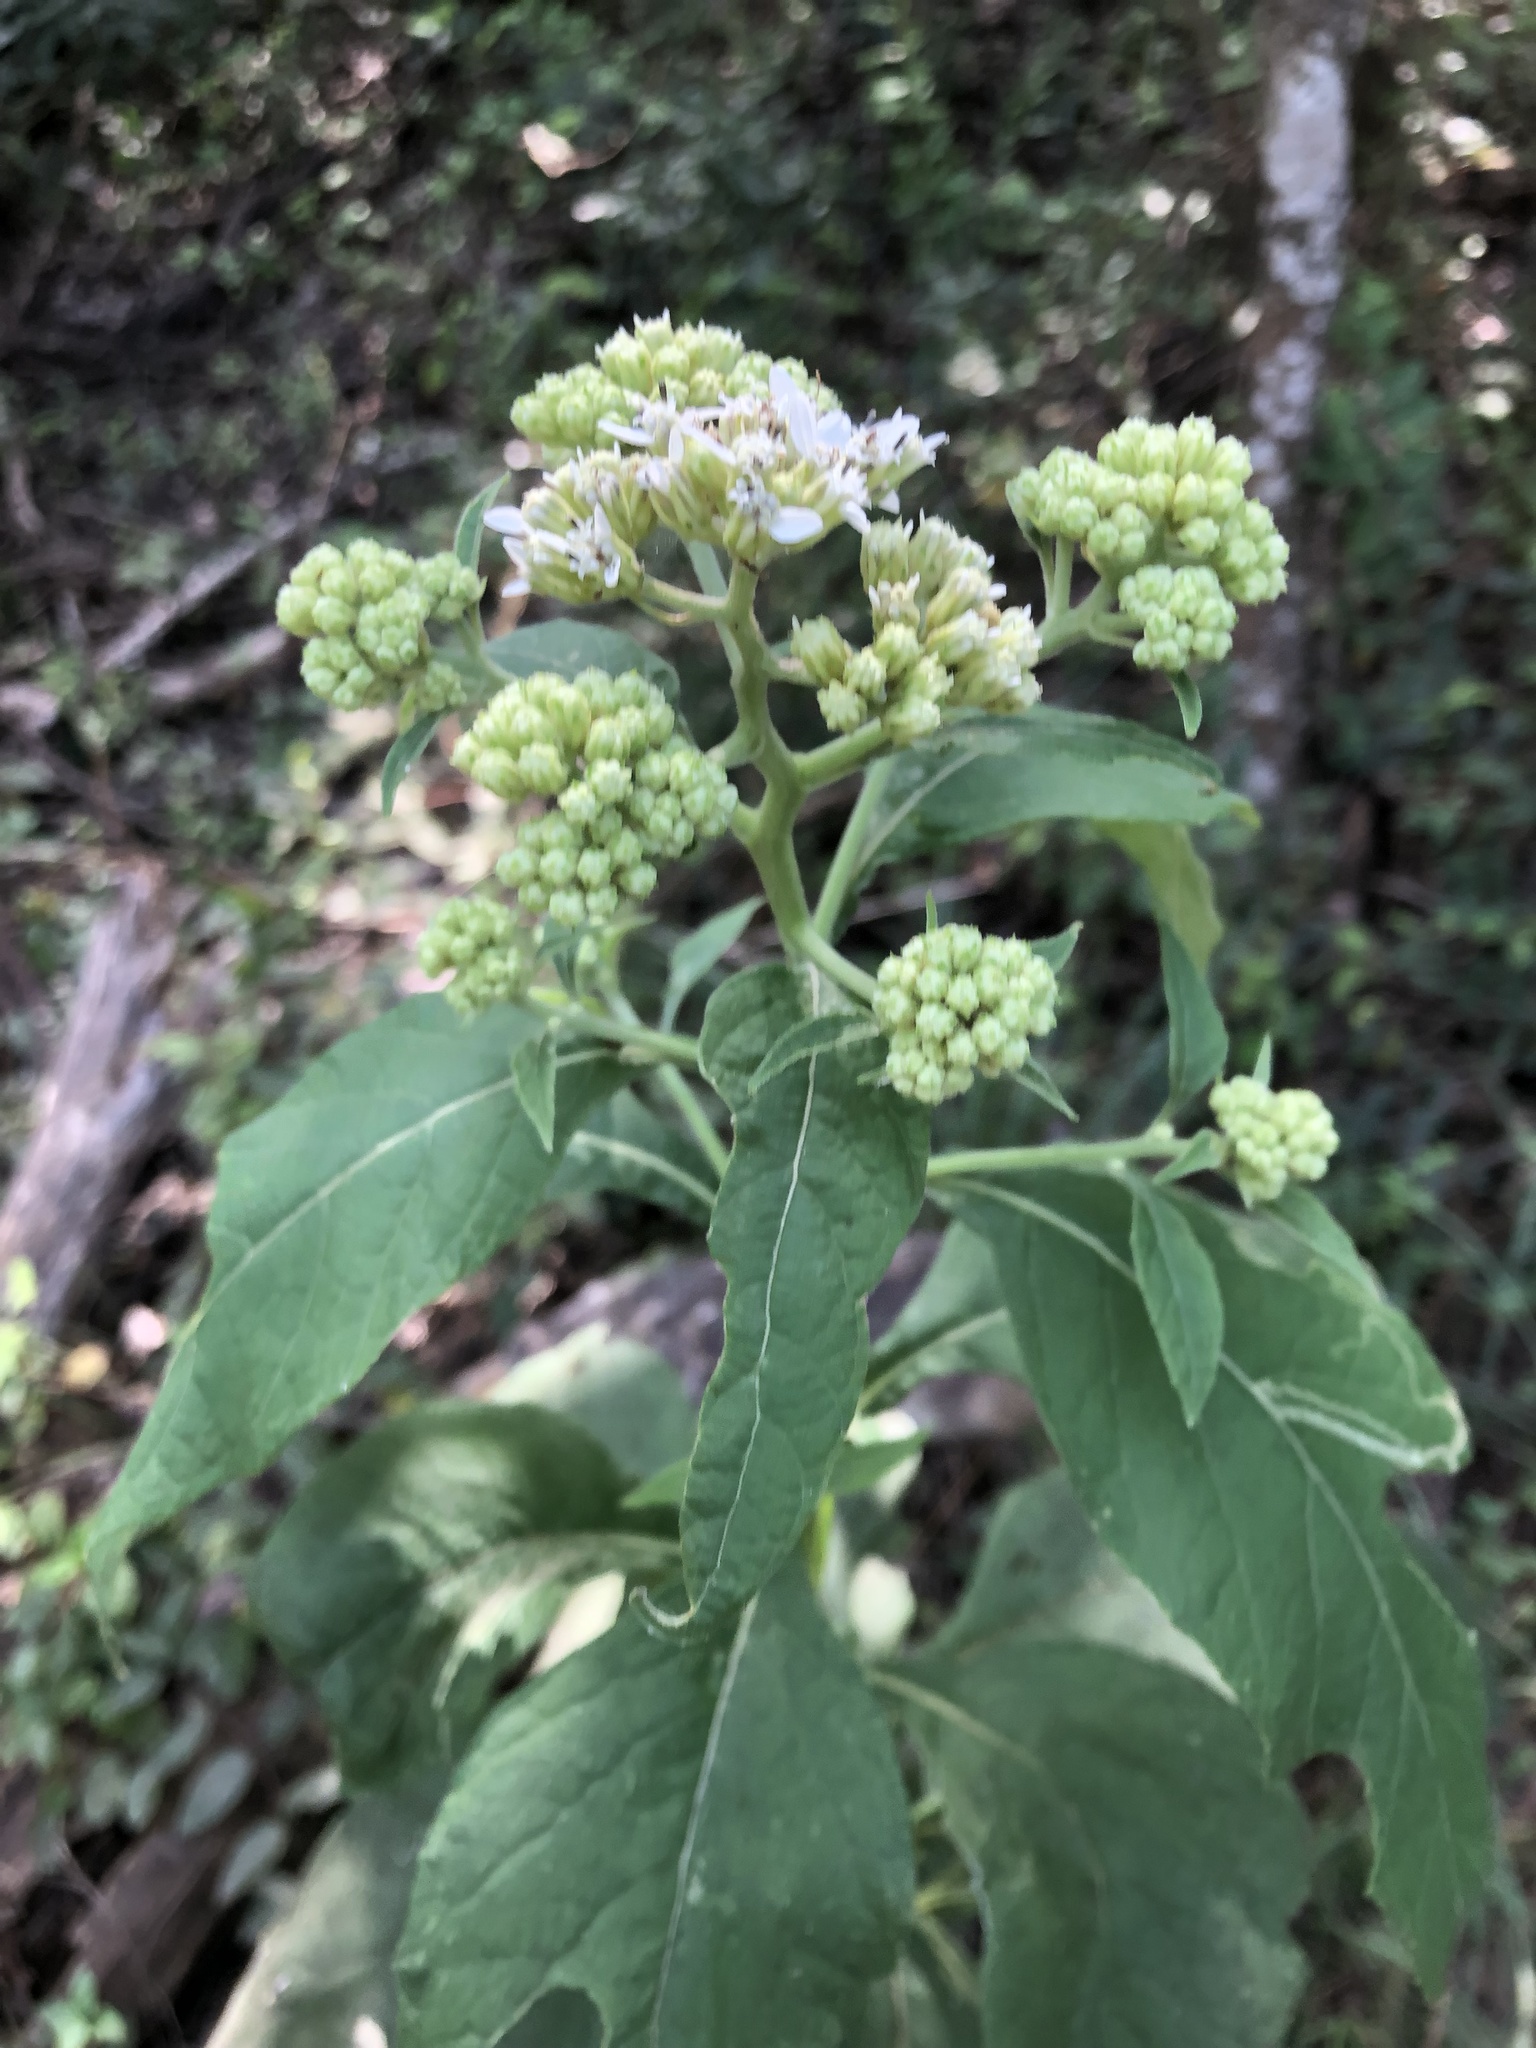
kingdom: Plantae
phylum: Tracheophyta
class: Magnoliopsida
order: Asterales
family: Asteraceae
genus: Verbesina
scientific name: Verbesina virginica
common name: Frostweed
